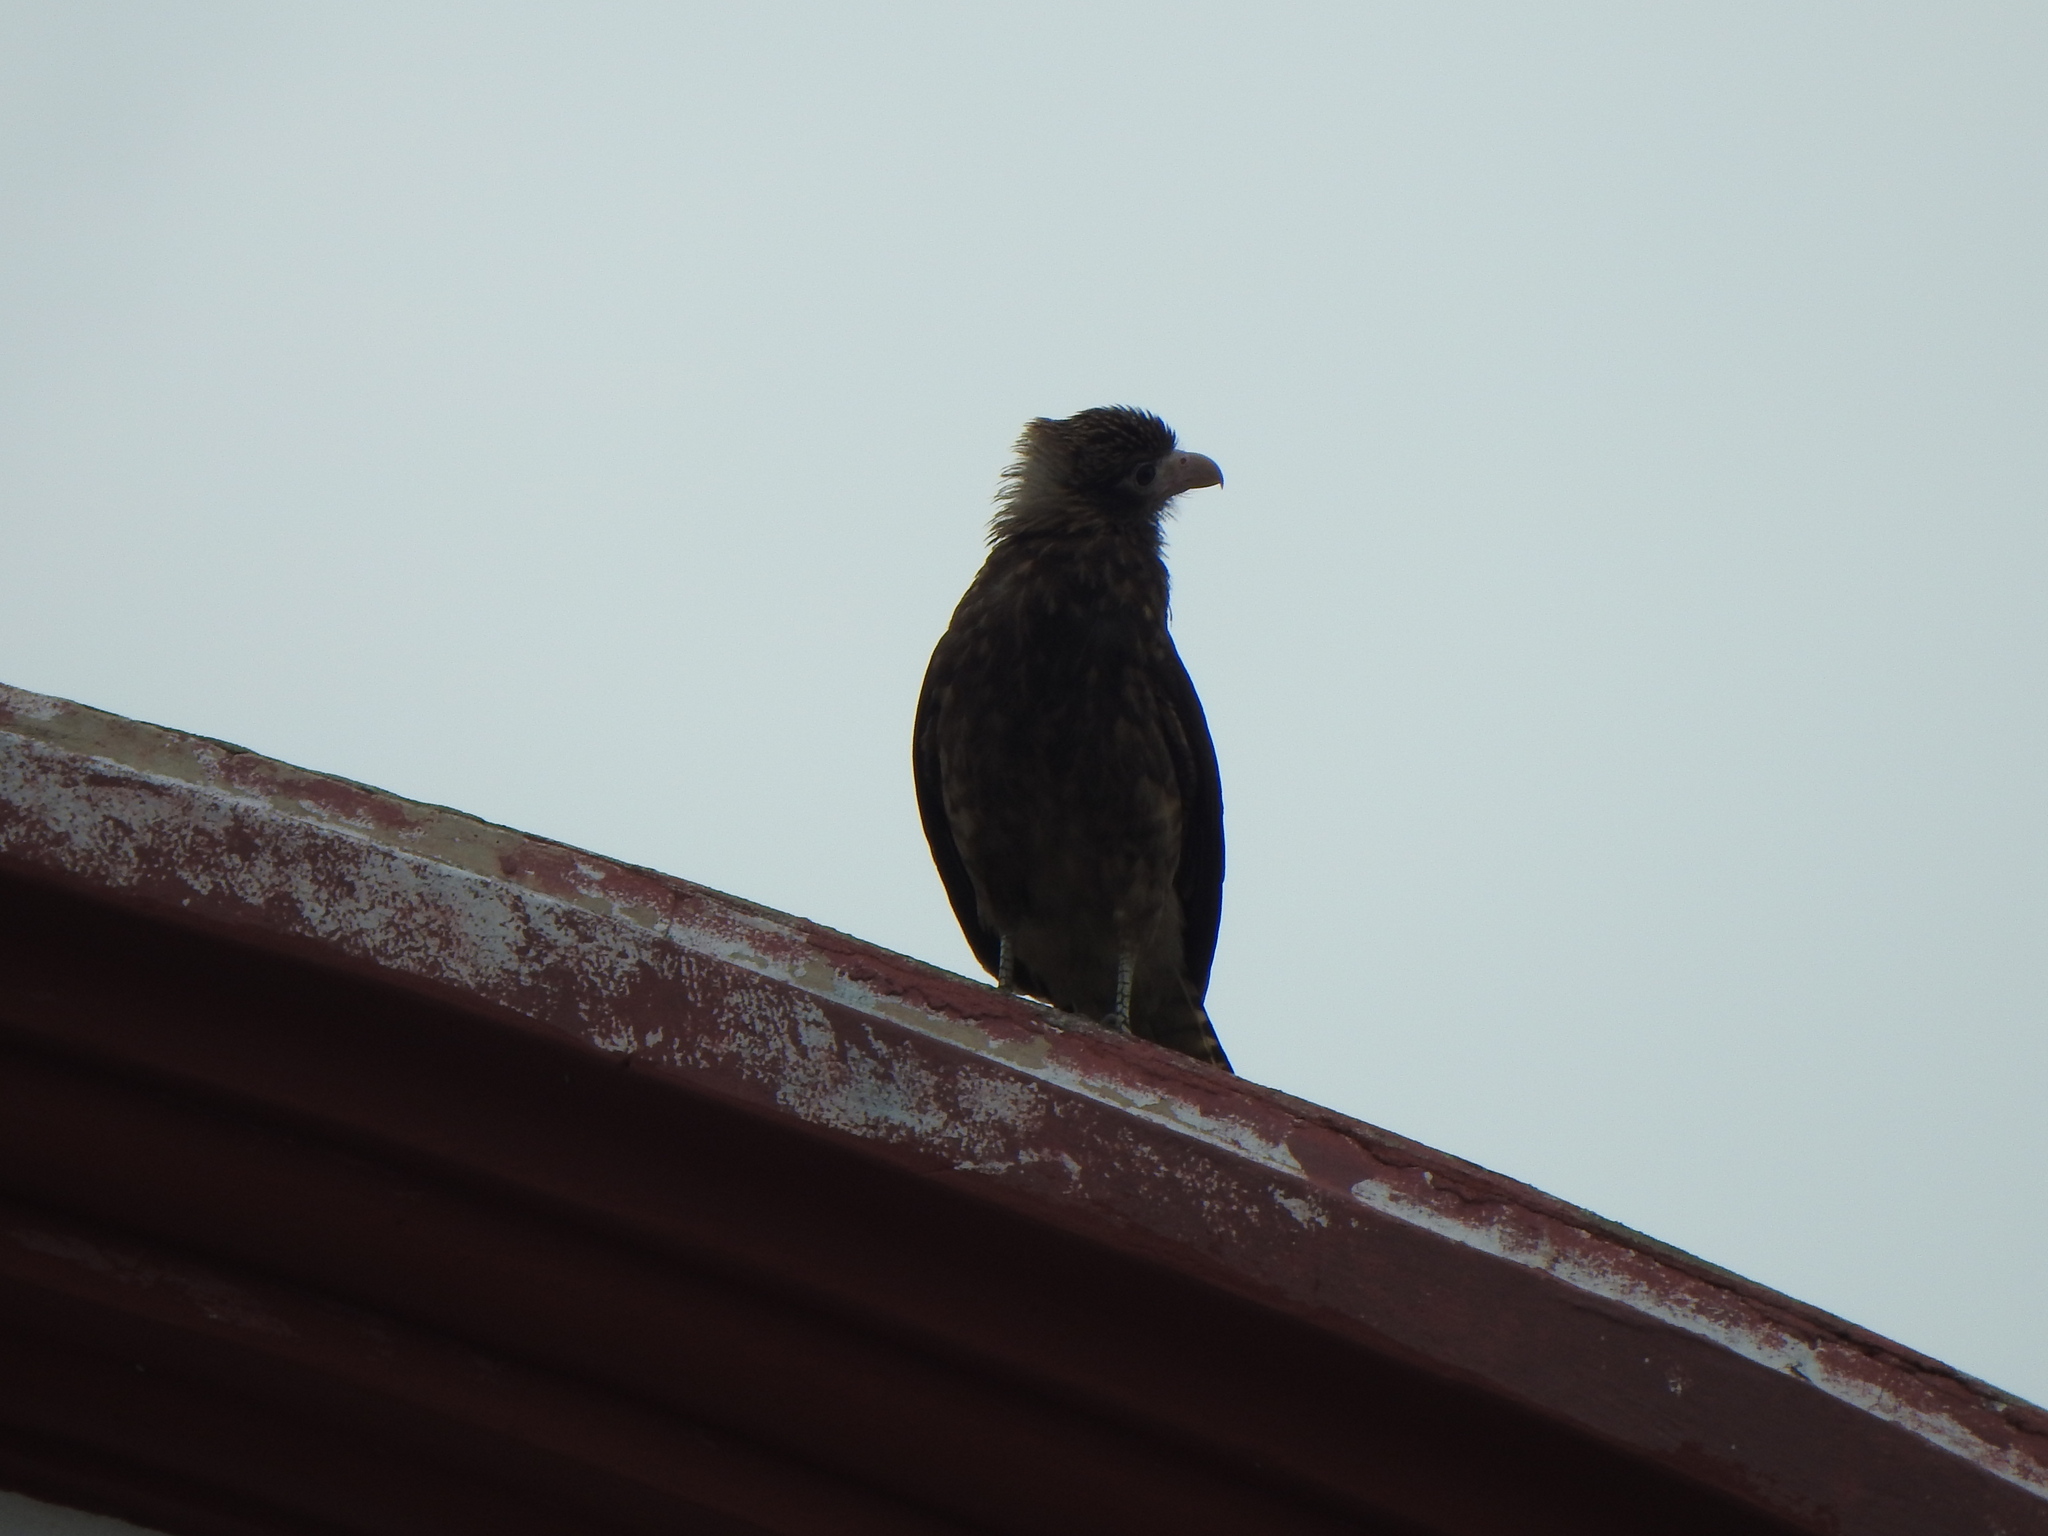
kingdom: Animalia
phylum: Chordata
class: Aves
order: Falconiformes
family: Falconidae
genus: Daptrius
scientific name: Daptrius
